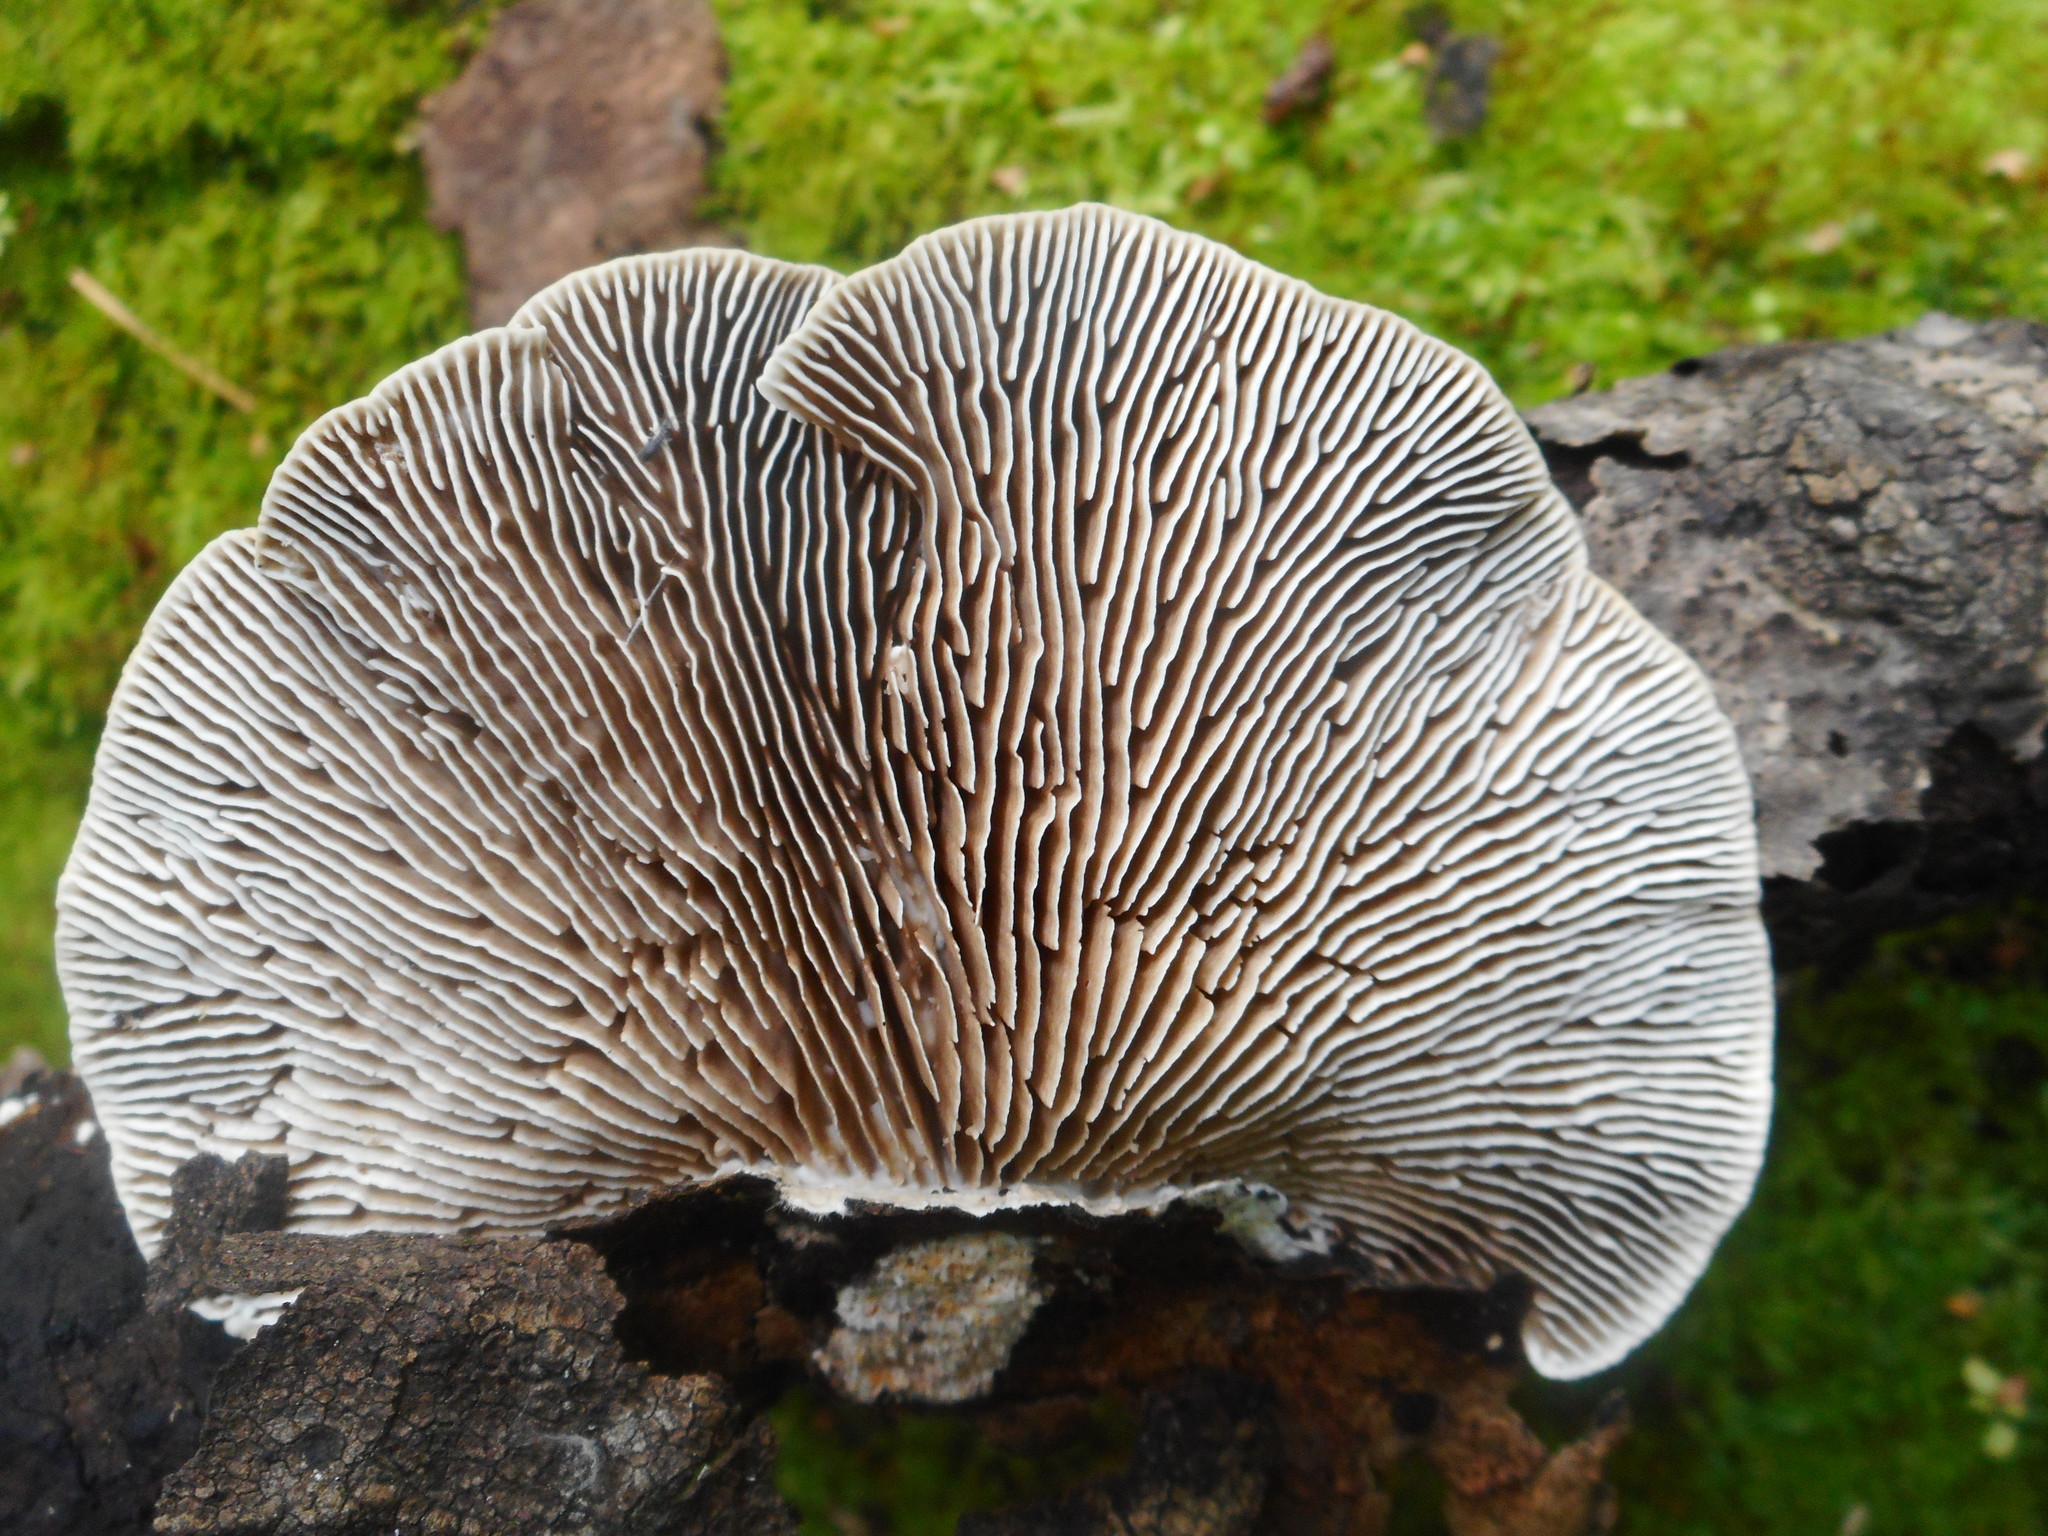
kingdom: Fungi
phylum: Basidiomycota
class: Agaricomycetes
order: Polyporales
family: Polyporaceae
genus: Lenzites
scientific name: Lenzites betulinus
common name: Birch mazegill
